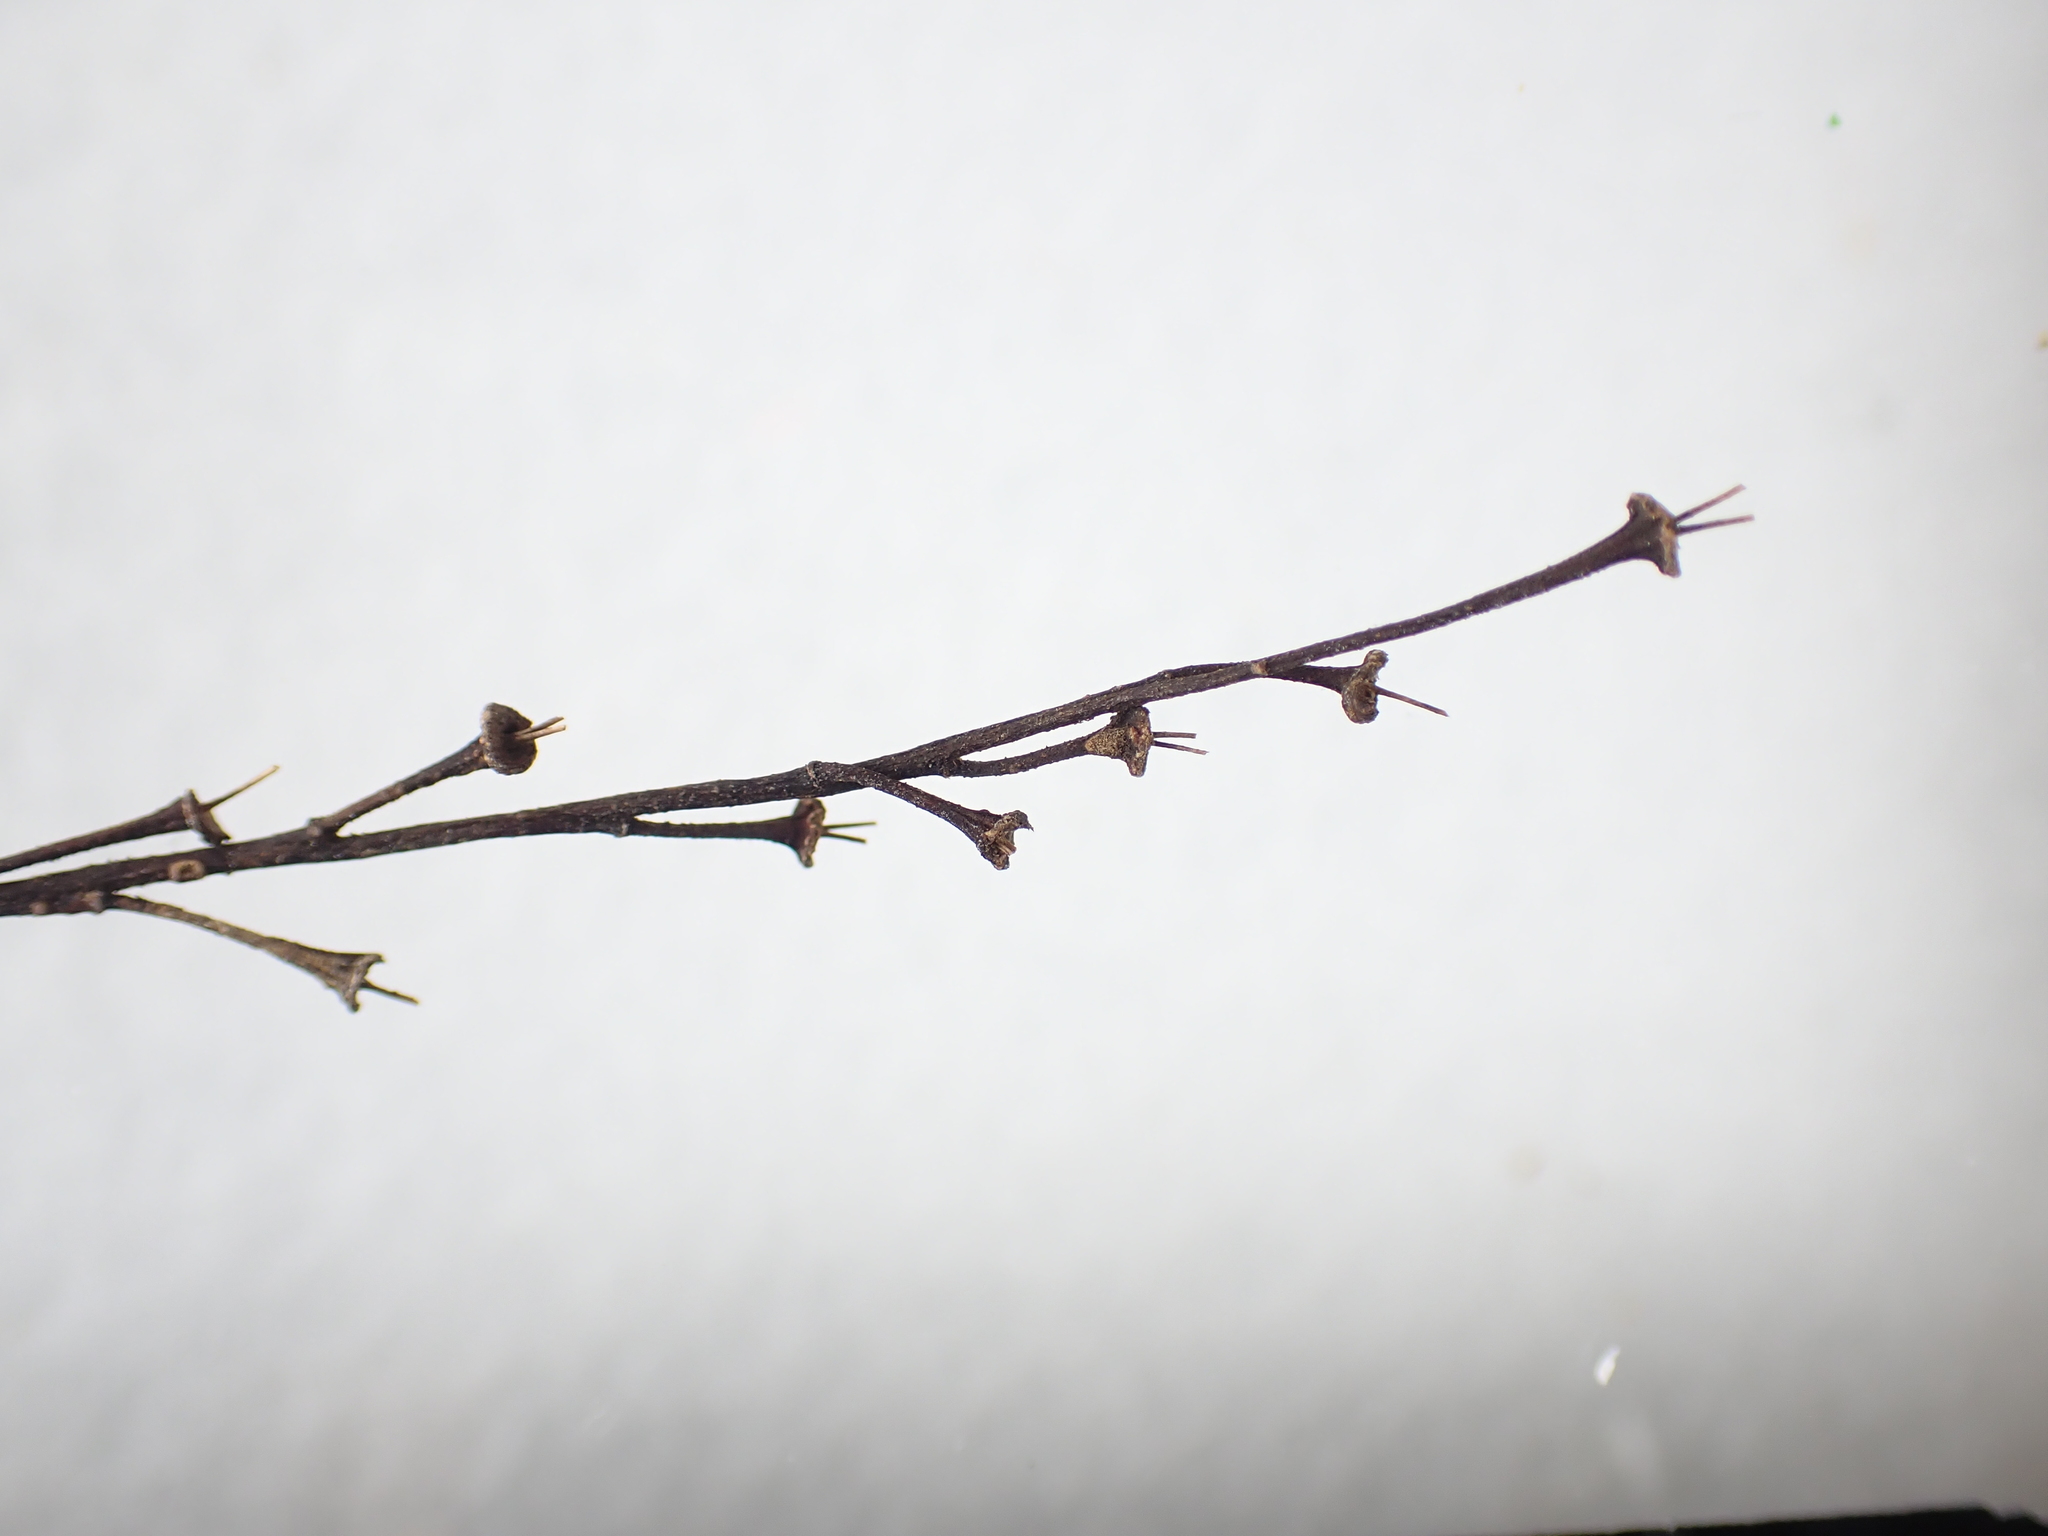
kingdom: Plantae
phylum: Tracheophyta
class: Magnoliopsida
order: Sapindales
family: Sapindaceae
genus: Acer
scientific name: Acer pensylvanicum
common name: Moosewood
